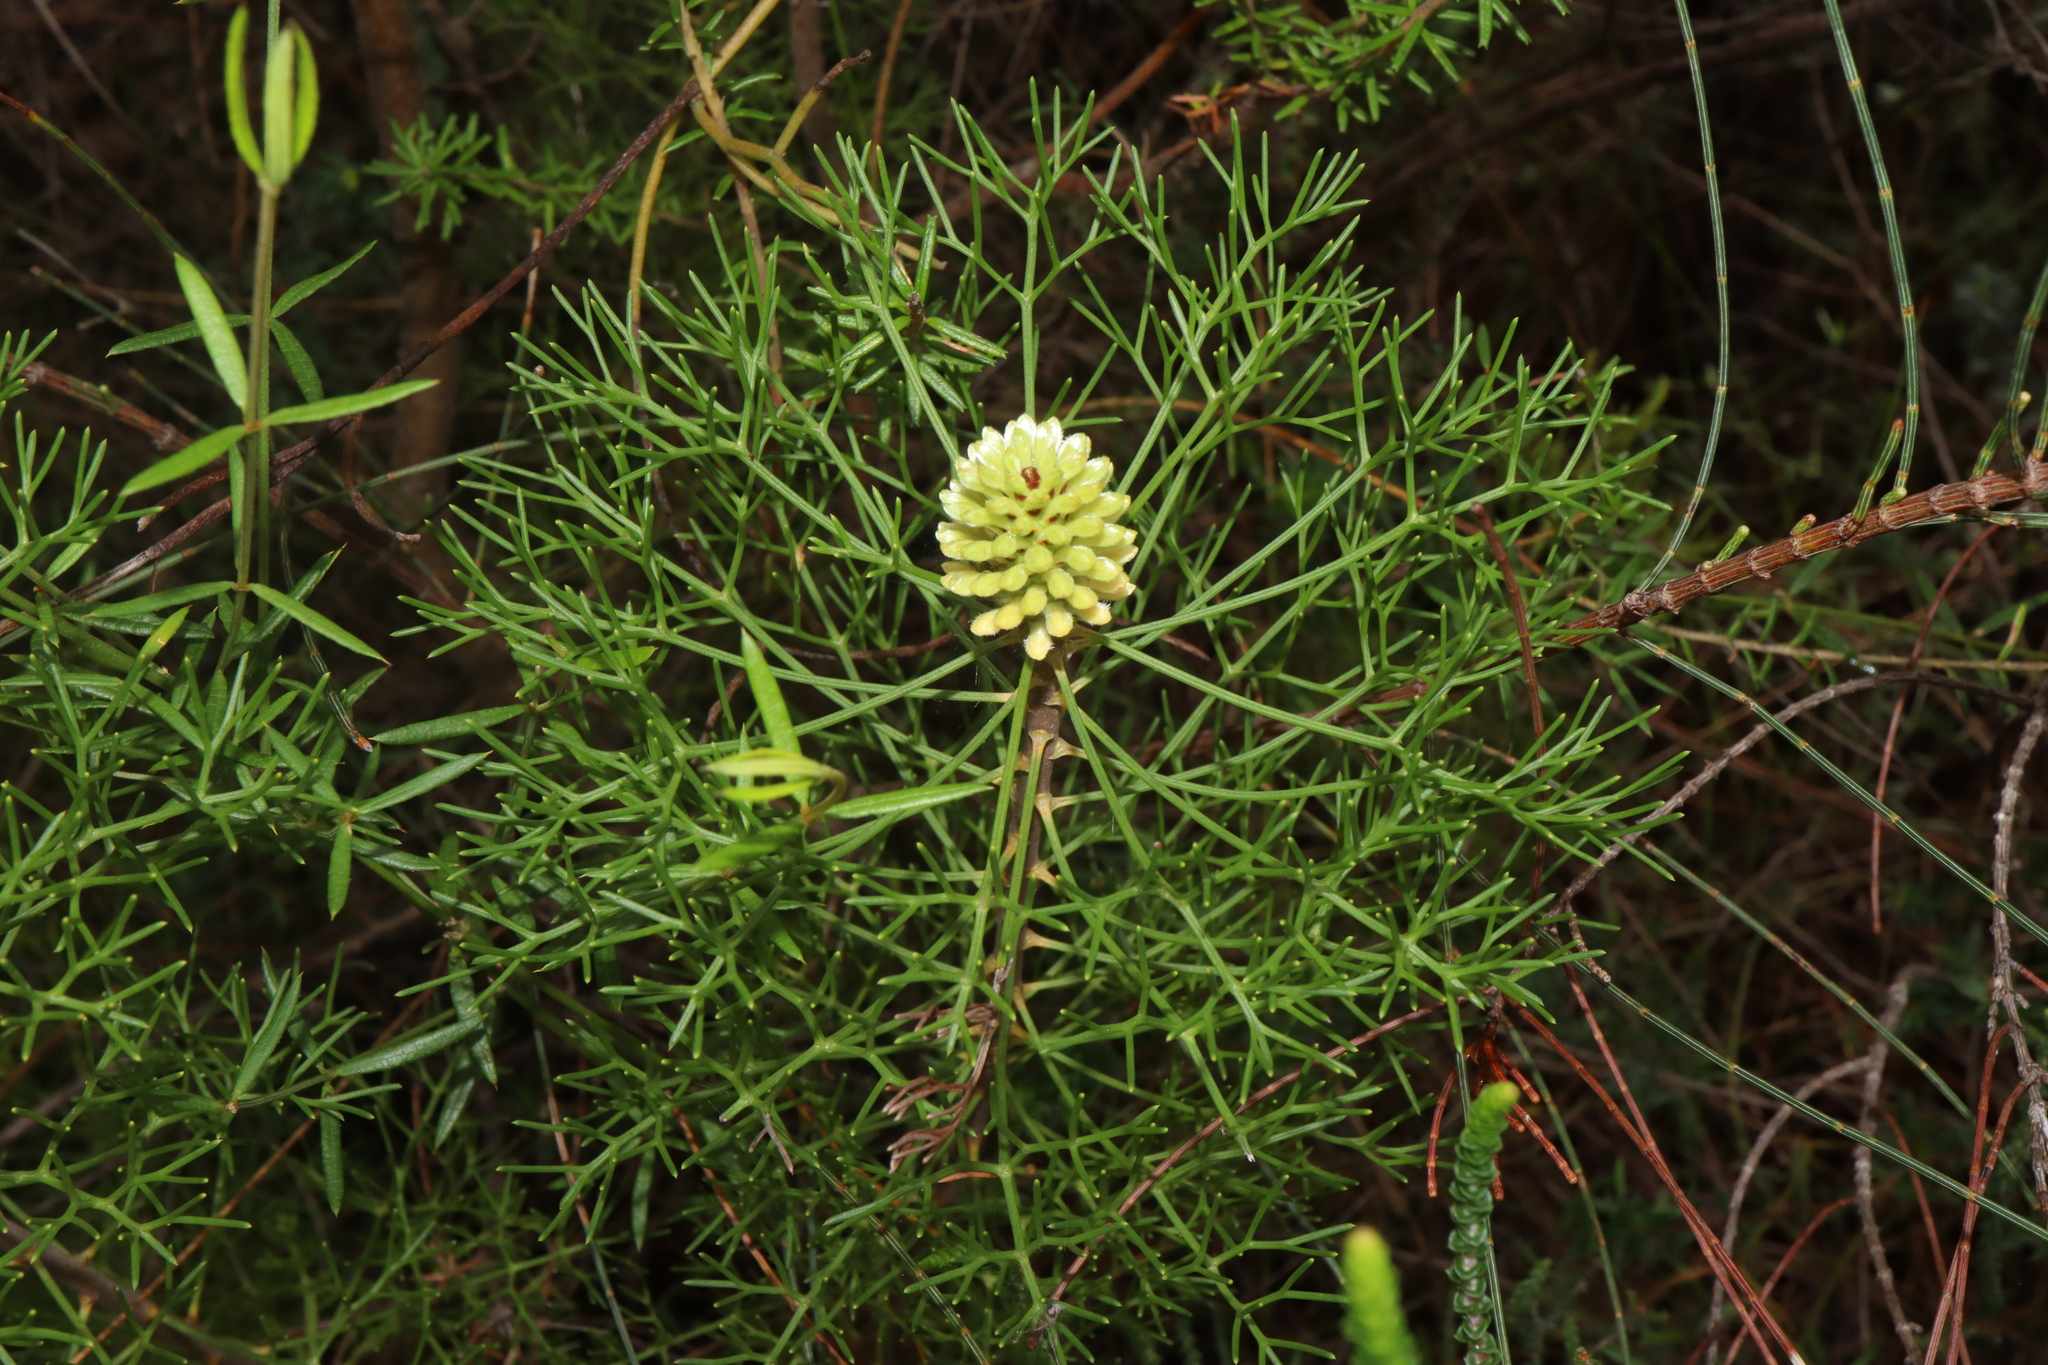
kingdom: Plantae
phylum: Tracheophyta
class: Magnoliopsida
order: Proteales
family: Proteaceae
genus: Petrophile
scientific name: Petrophile pulchella
